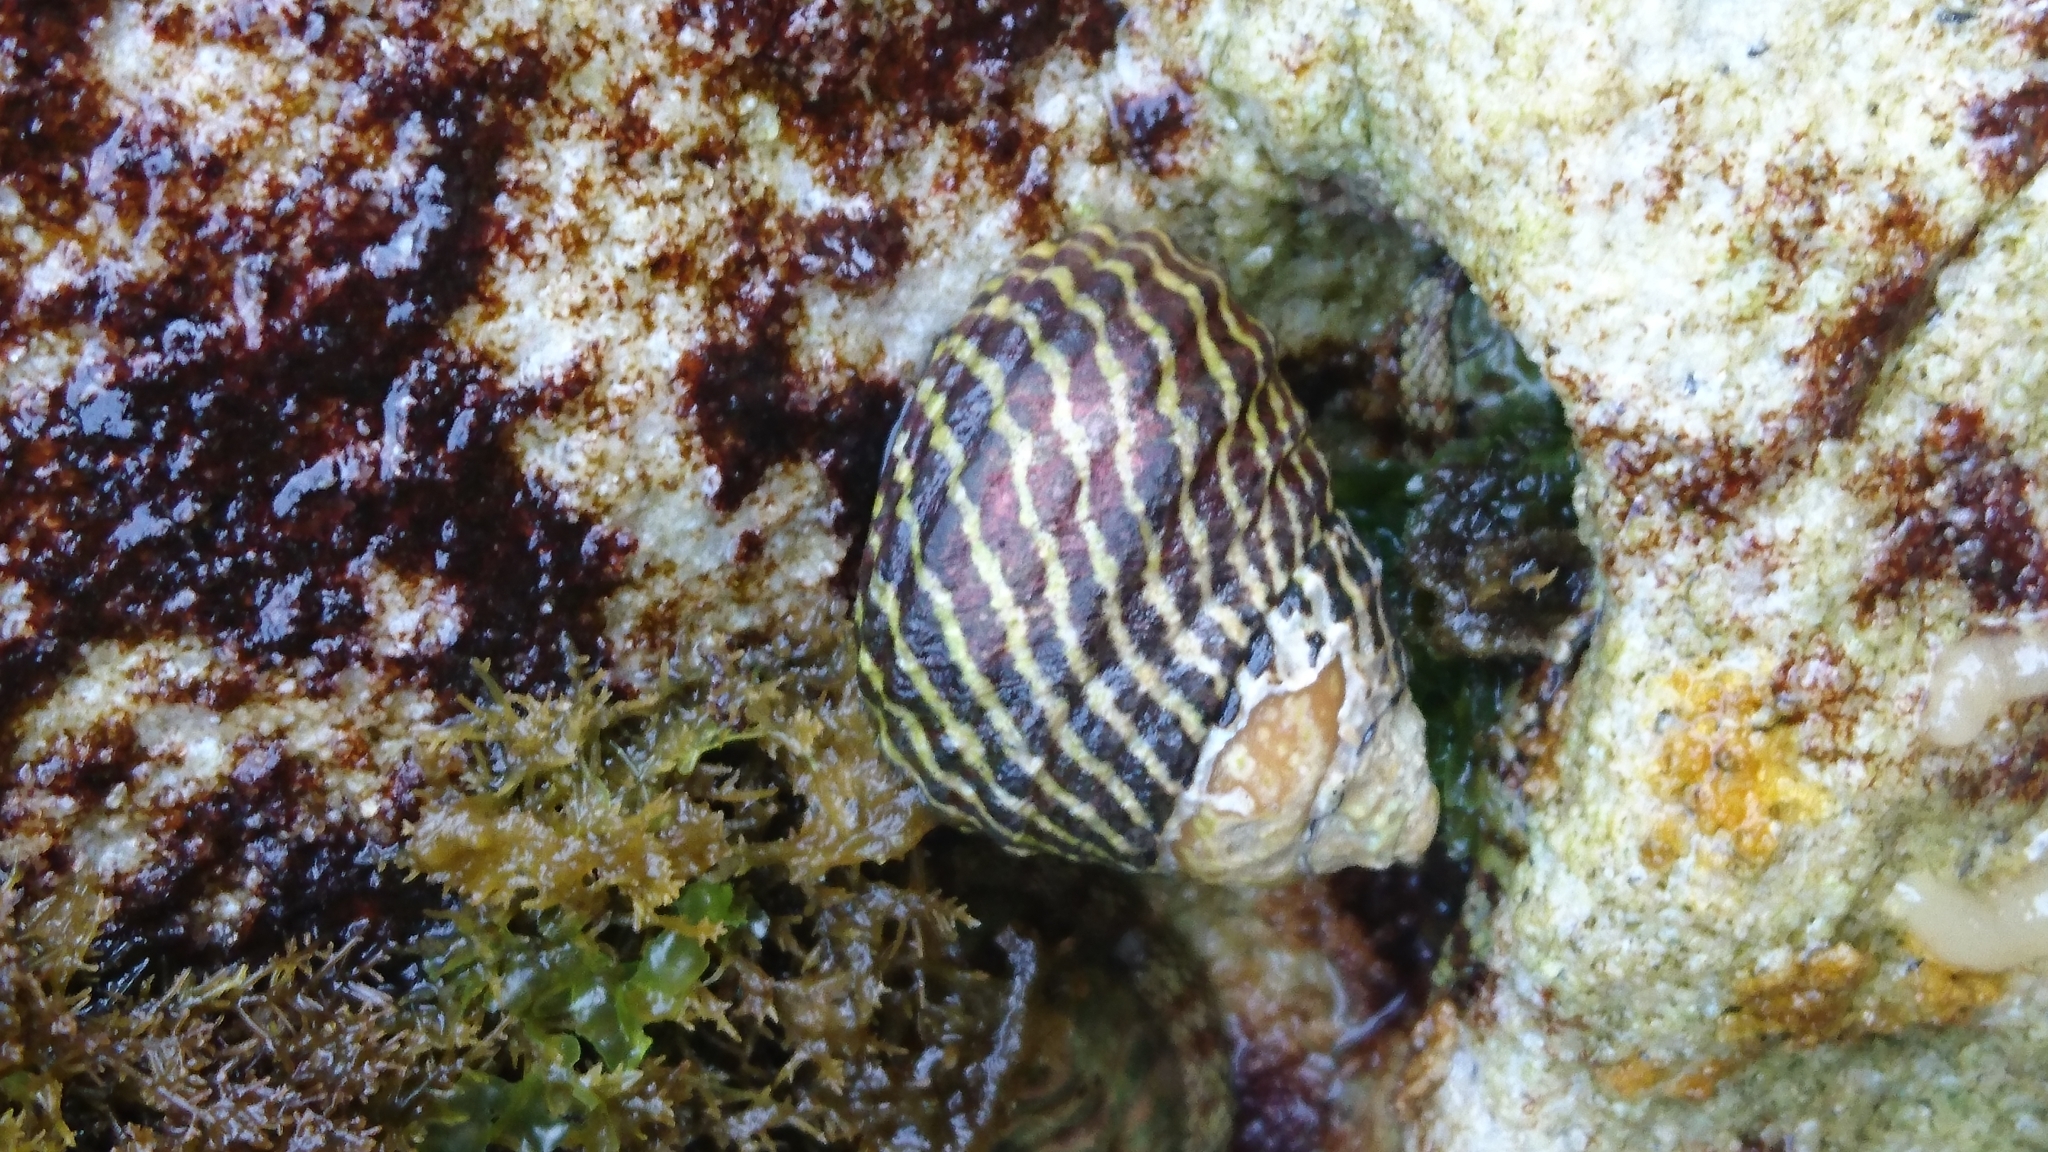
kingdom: Animalia
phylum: Mollusca
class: Gastropoda
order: Trochida
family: Trochidae
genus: Austrocochlea
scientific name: Austrocochlea porcata
